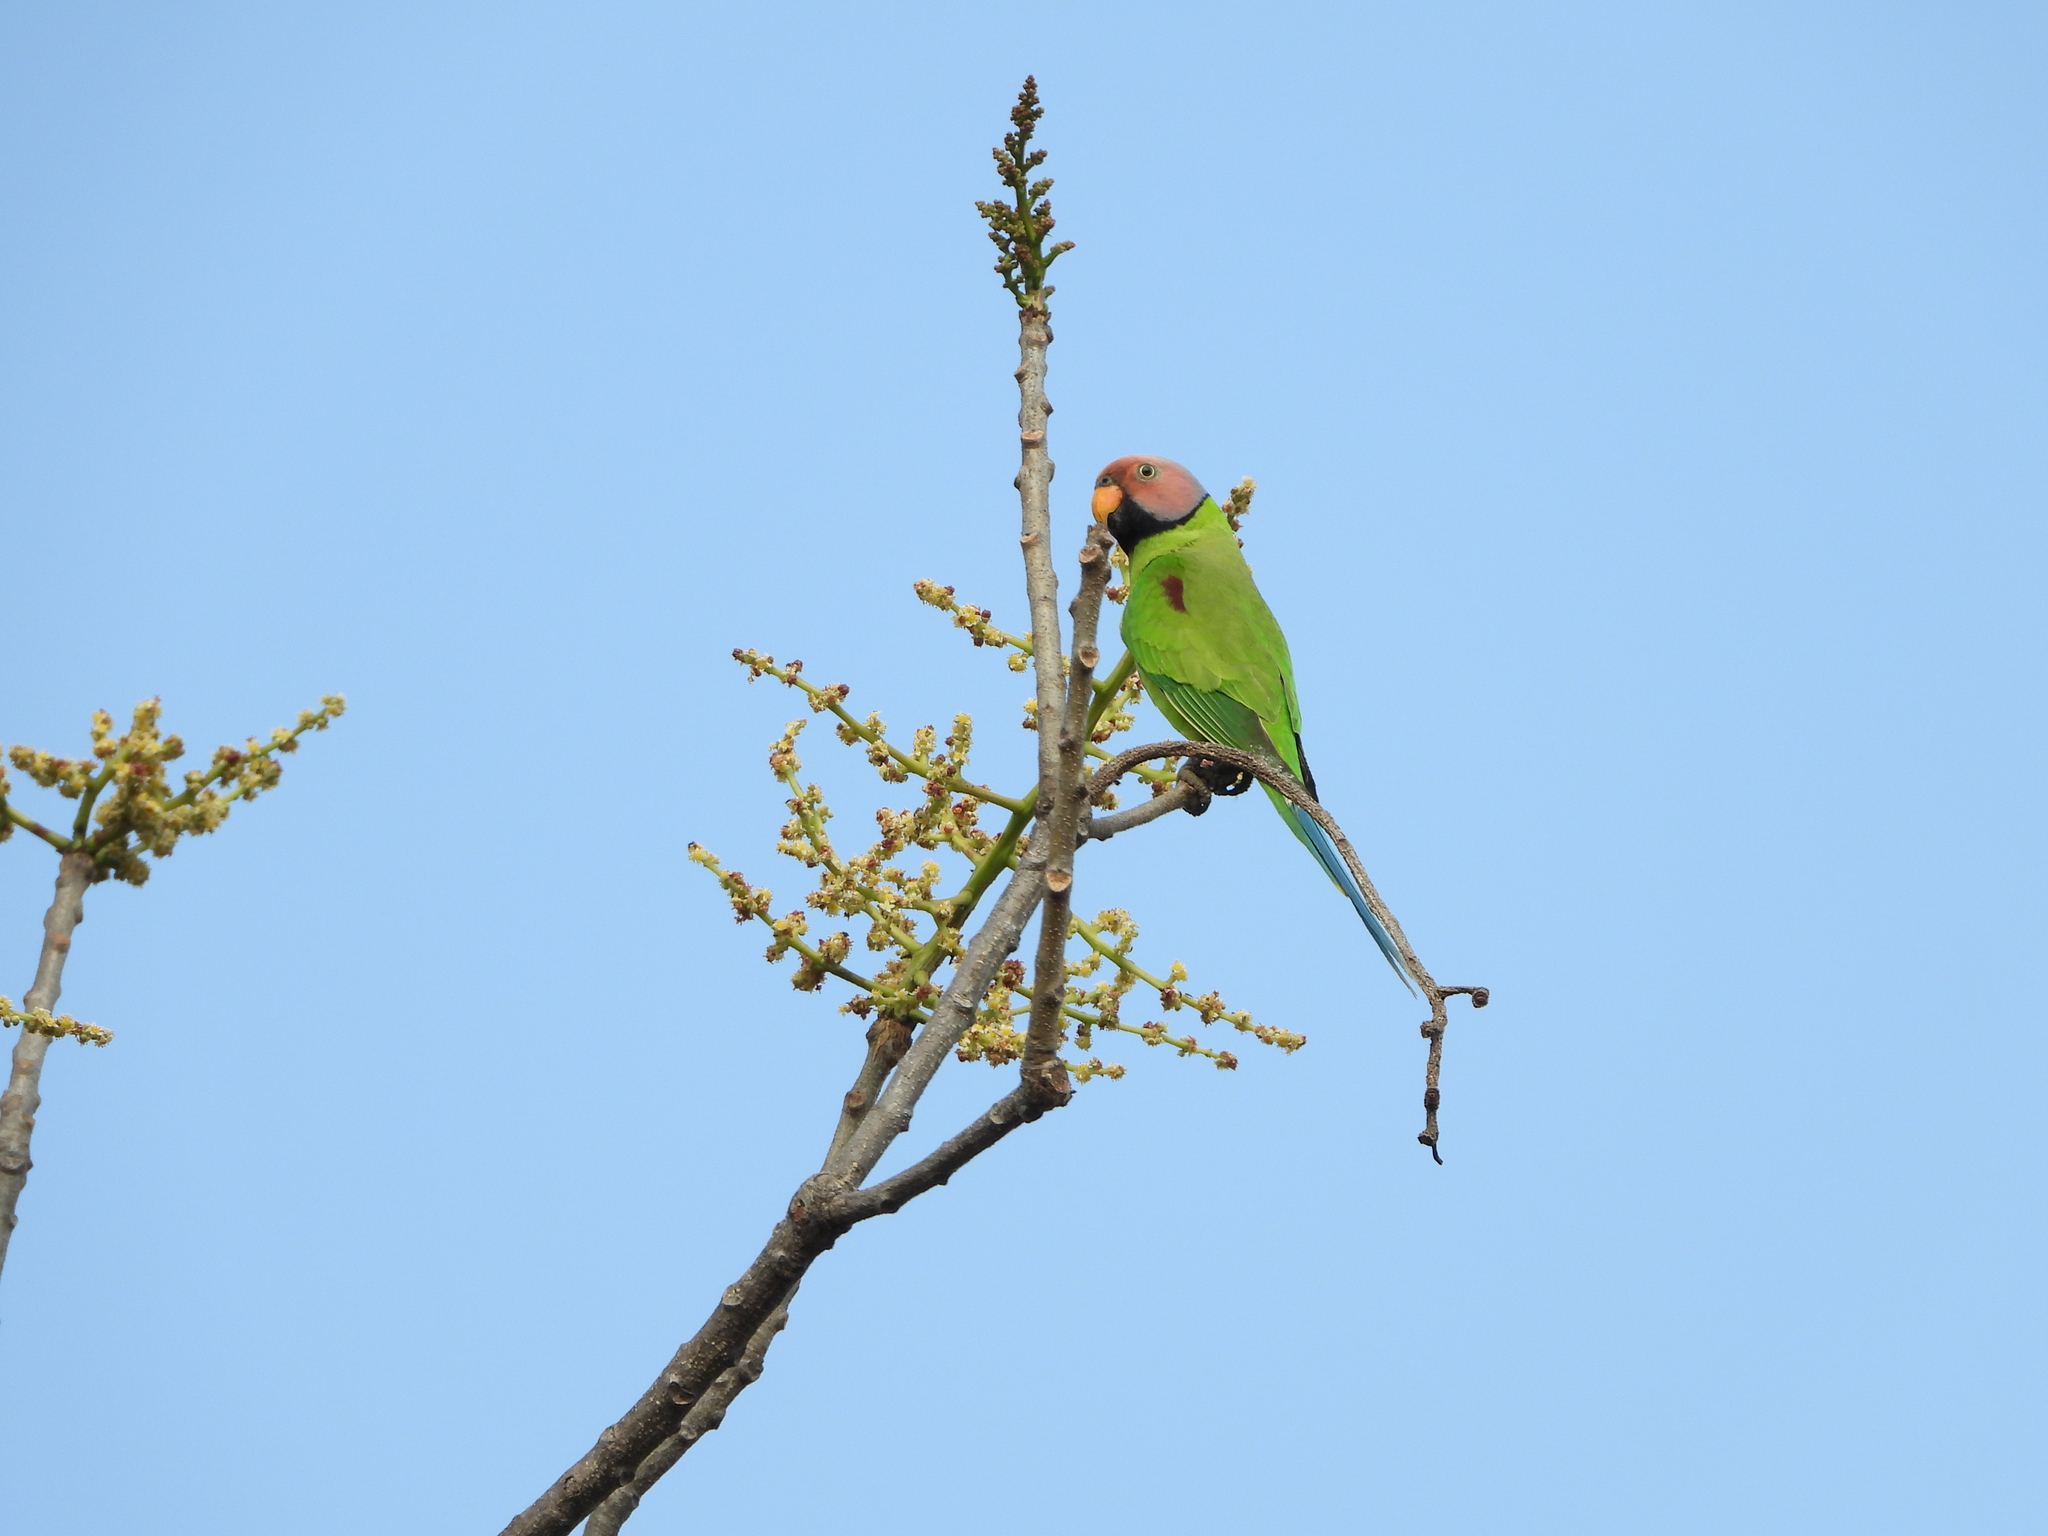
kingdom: Animalia
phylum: Chordata
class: Aves
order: Psittaciformes
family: Psittacidae
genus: Psittacula
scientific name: Psittacula roseata
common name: Blossom-headed parakeet
